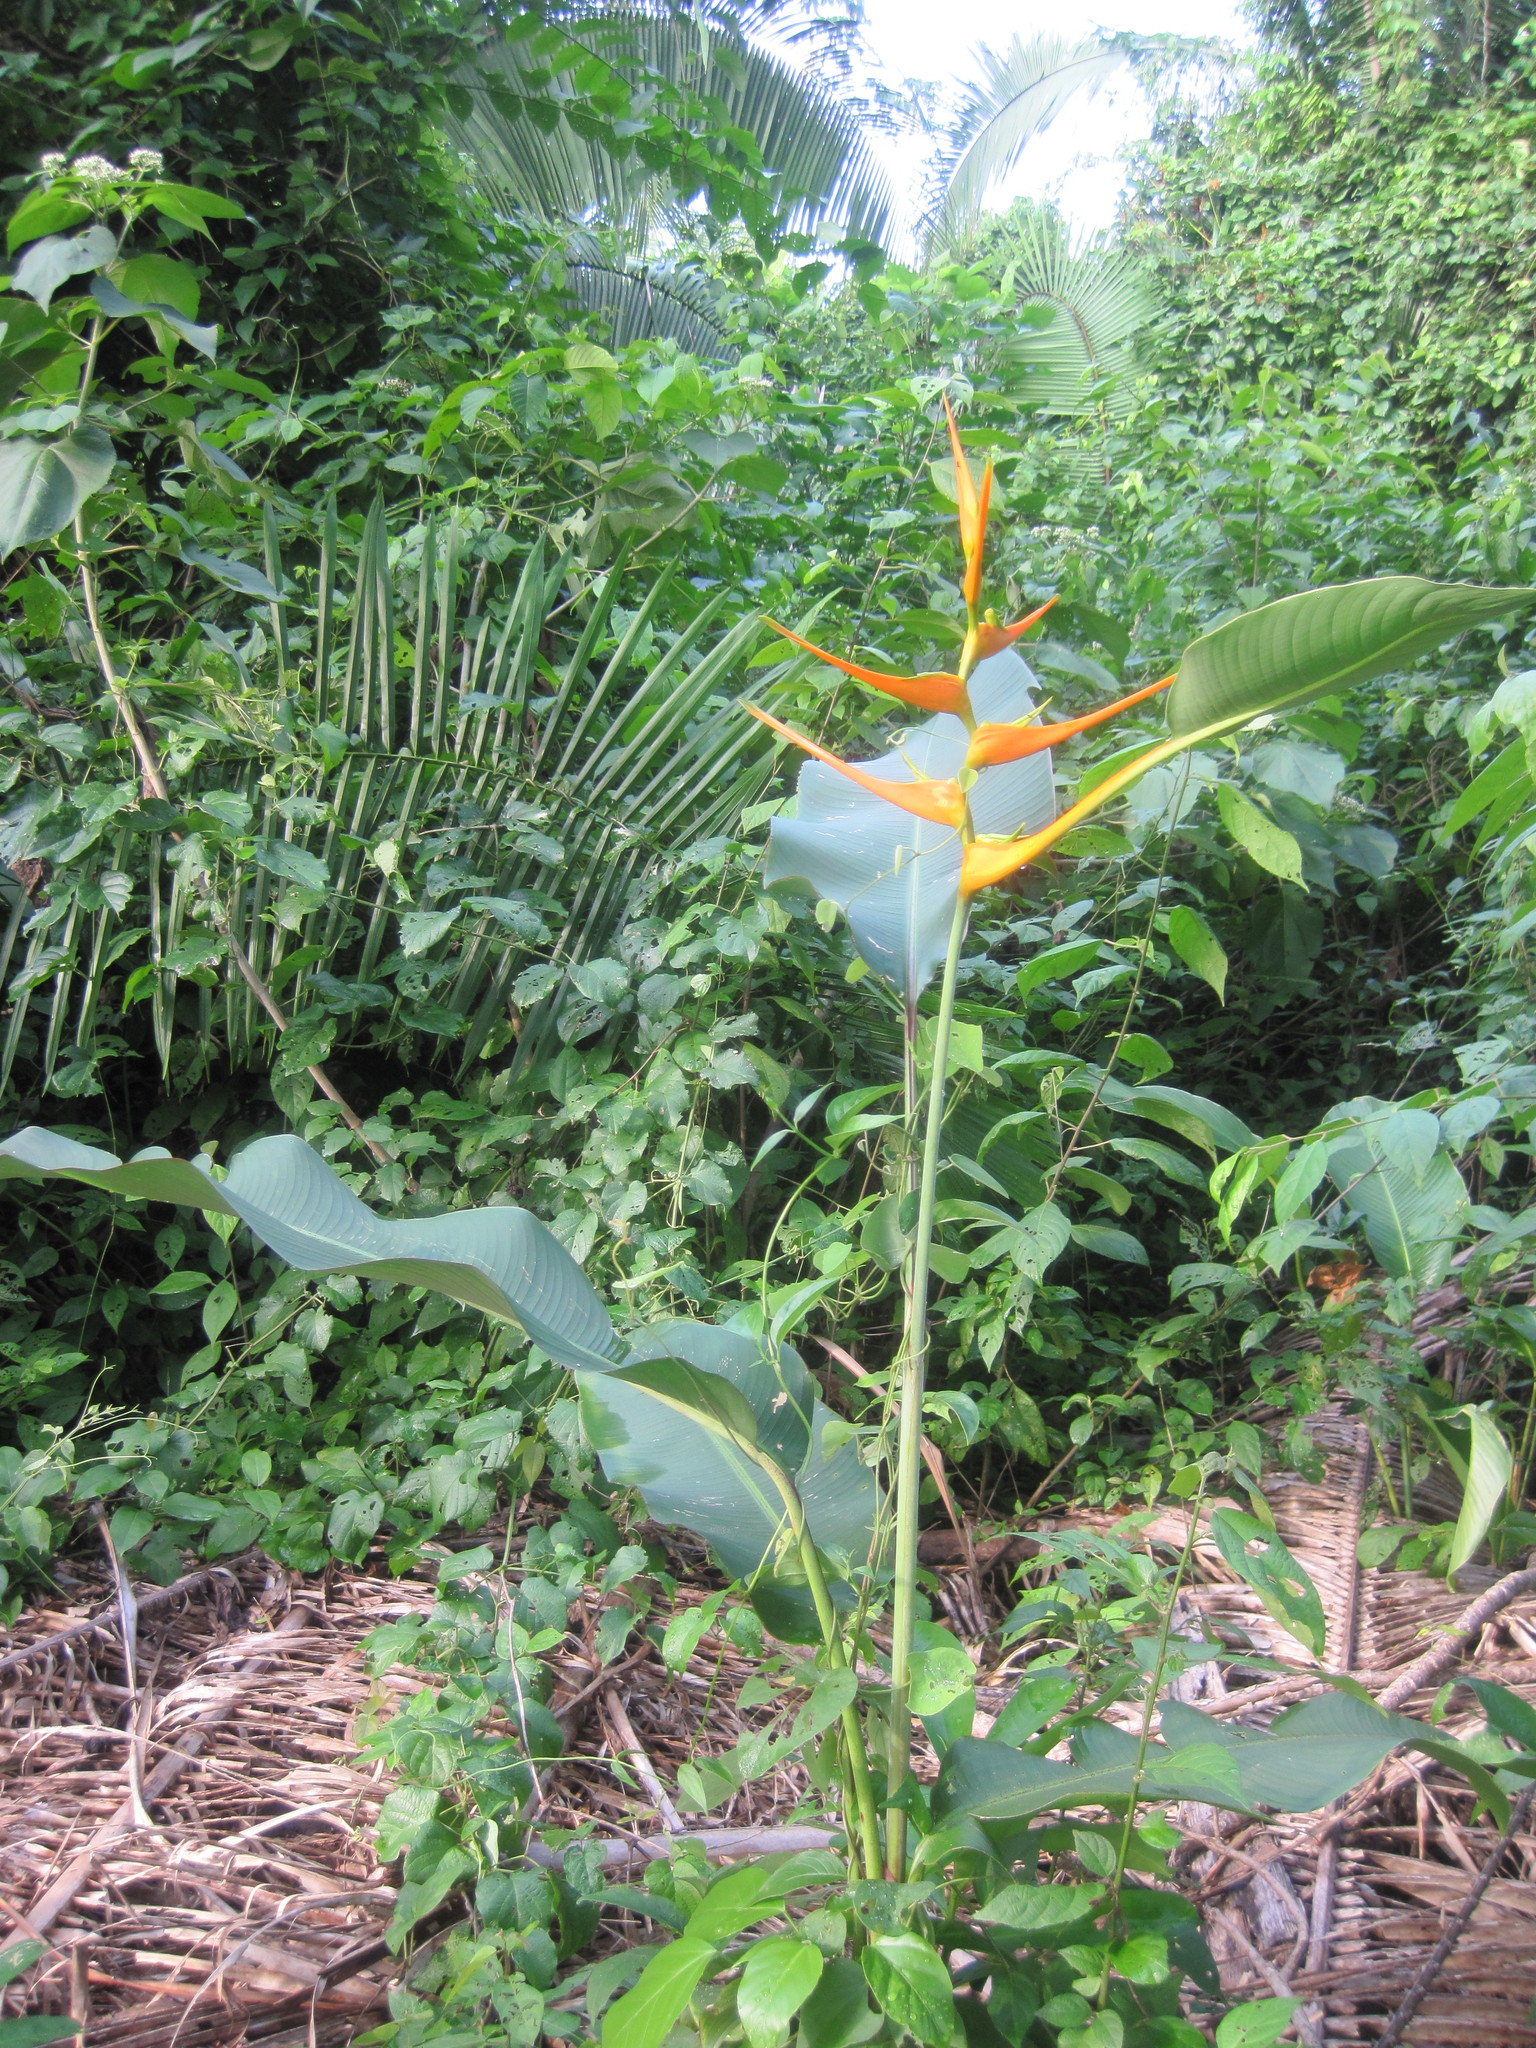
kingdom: Plantae
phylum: Tracheophyta
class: Liliopsida
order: Zingiberales
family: Heliconiaceae
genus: Heliconia
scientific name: Heliconia latispatha
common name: Expanded lobsterclaw
